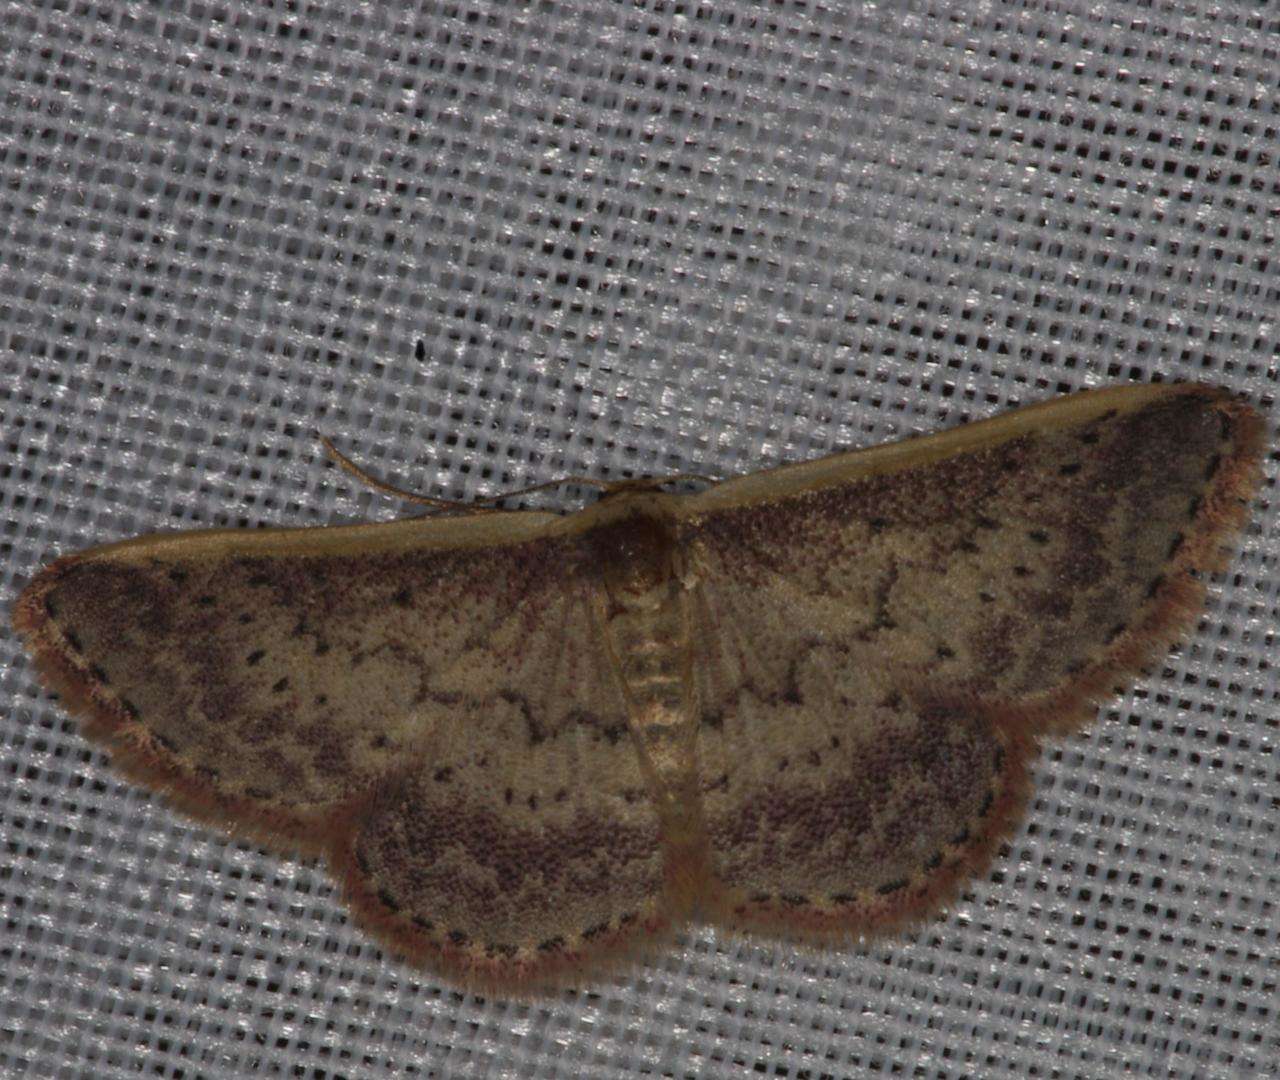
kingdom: Animalia
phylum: Arthropoda
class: Insecta
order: Lepidoptera
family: Geometridae
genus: Idaea
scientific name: Idaea nephelota
